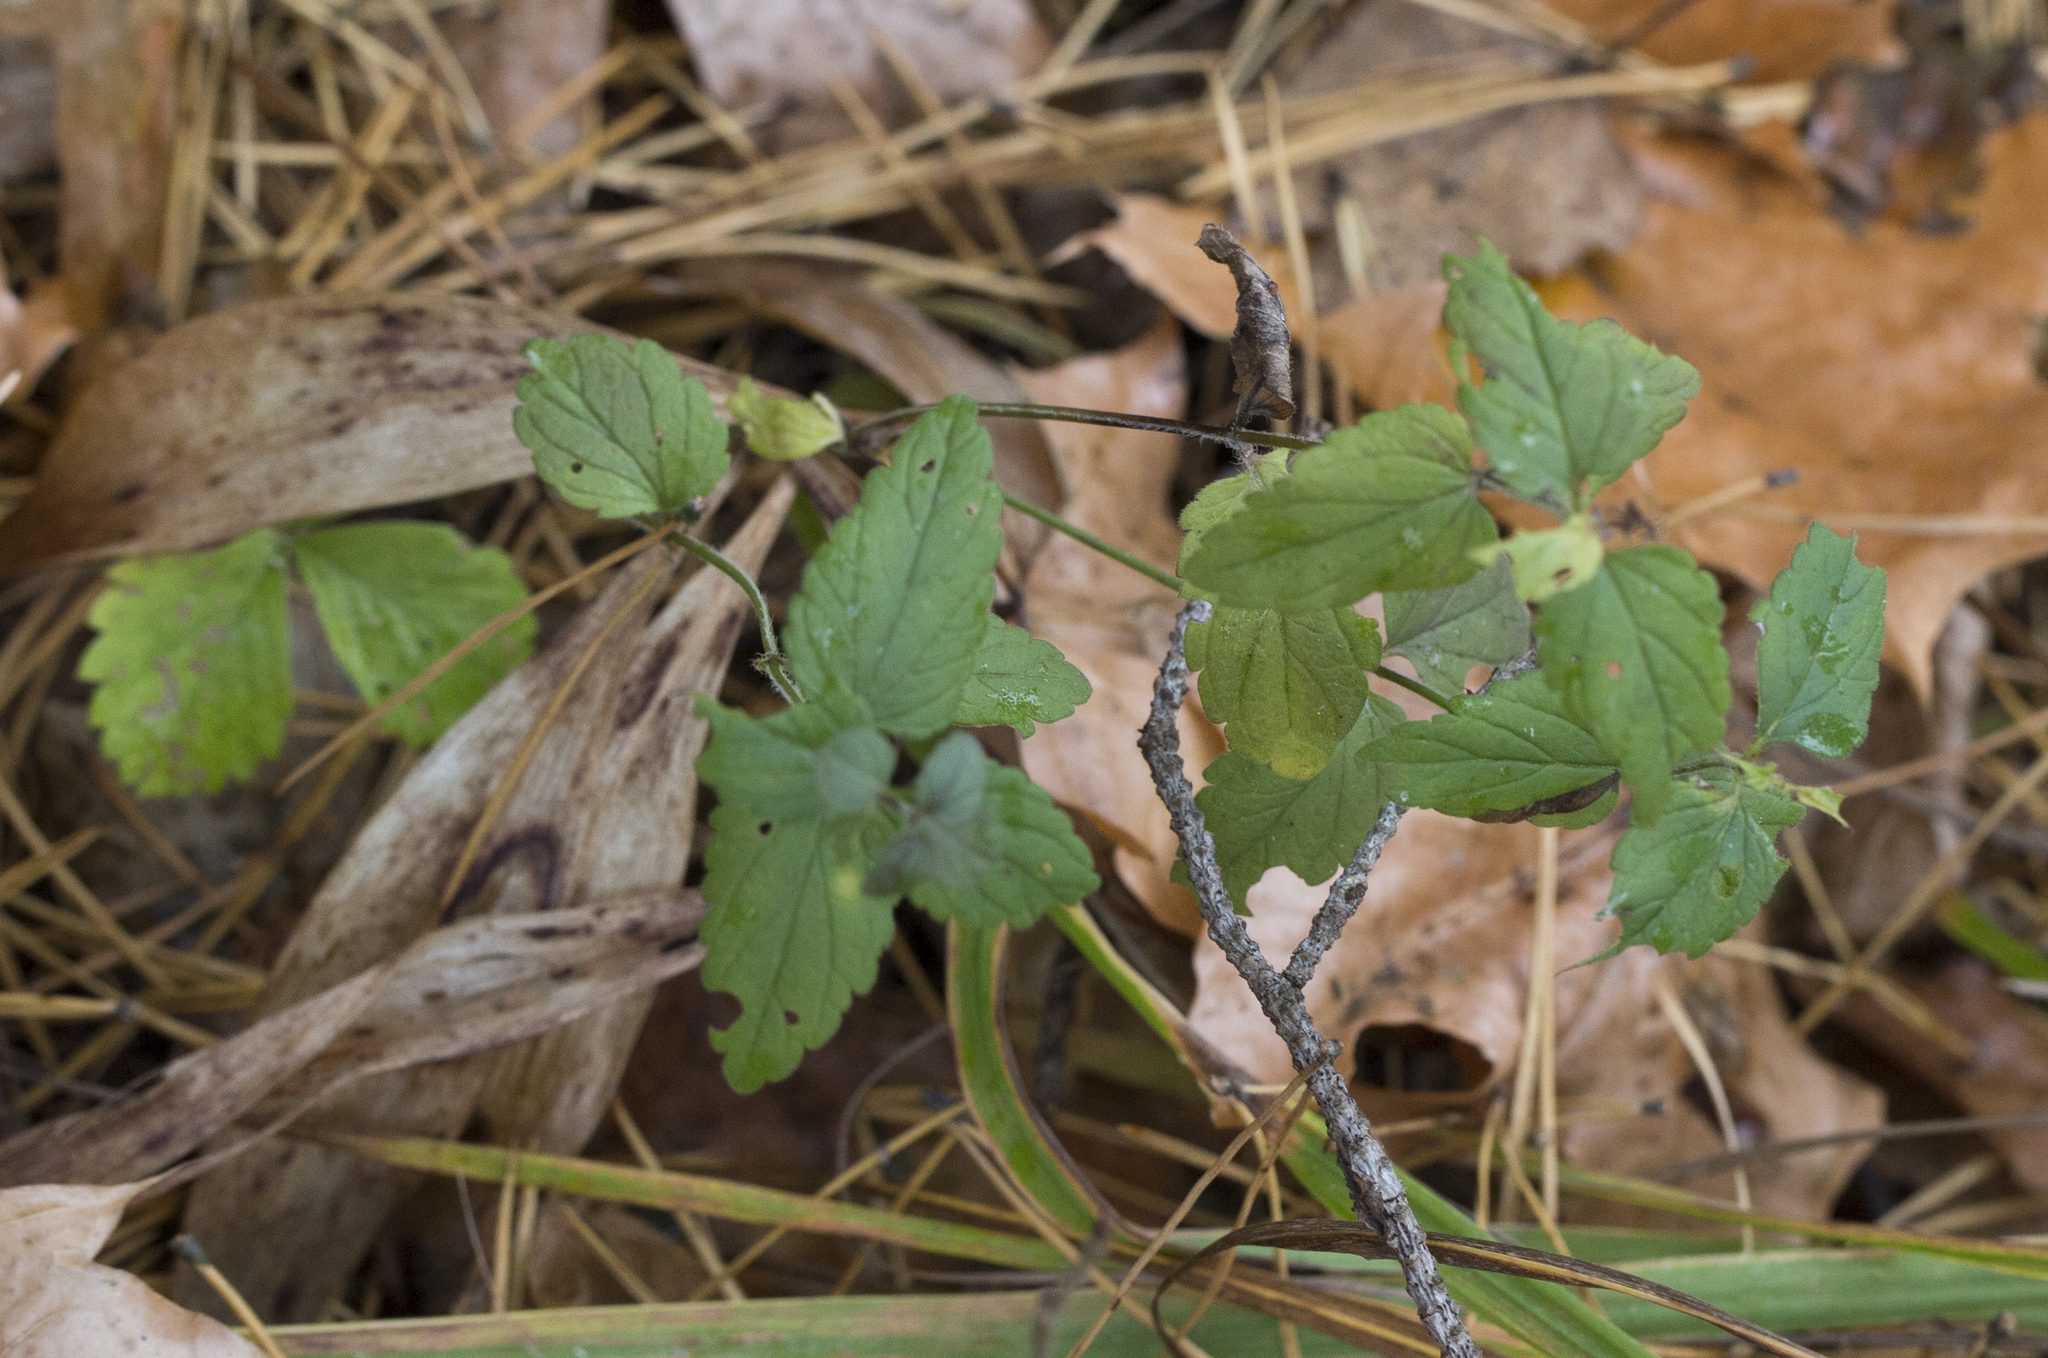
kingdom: Plantae
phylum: Tracheophyta
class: Magnoliopsida
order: Lamiales
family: Plantaginaceae
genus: Veronica
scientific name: Veronica chamaedrys
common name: Germander speedwell
